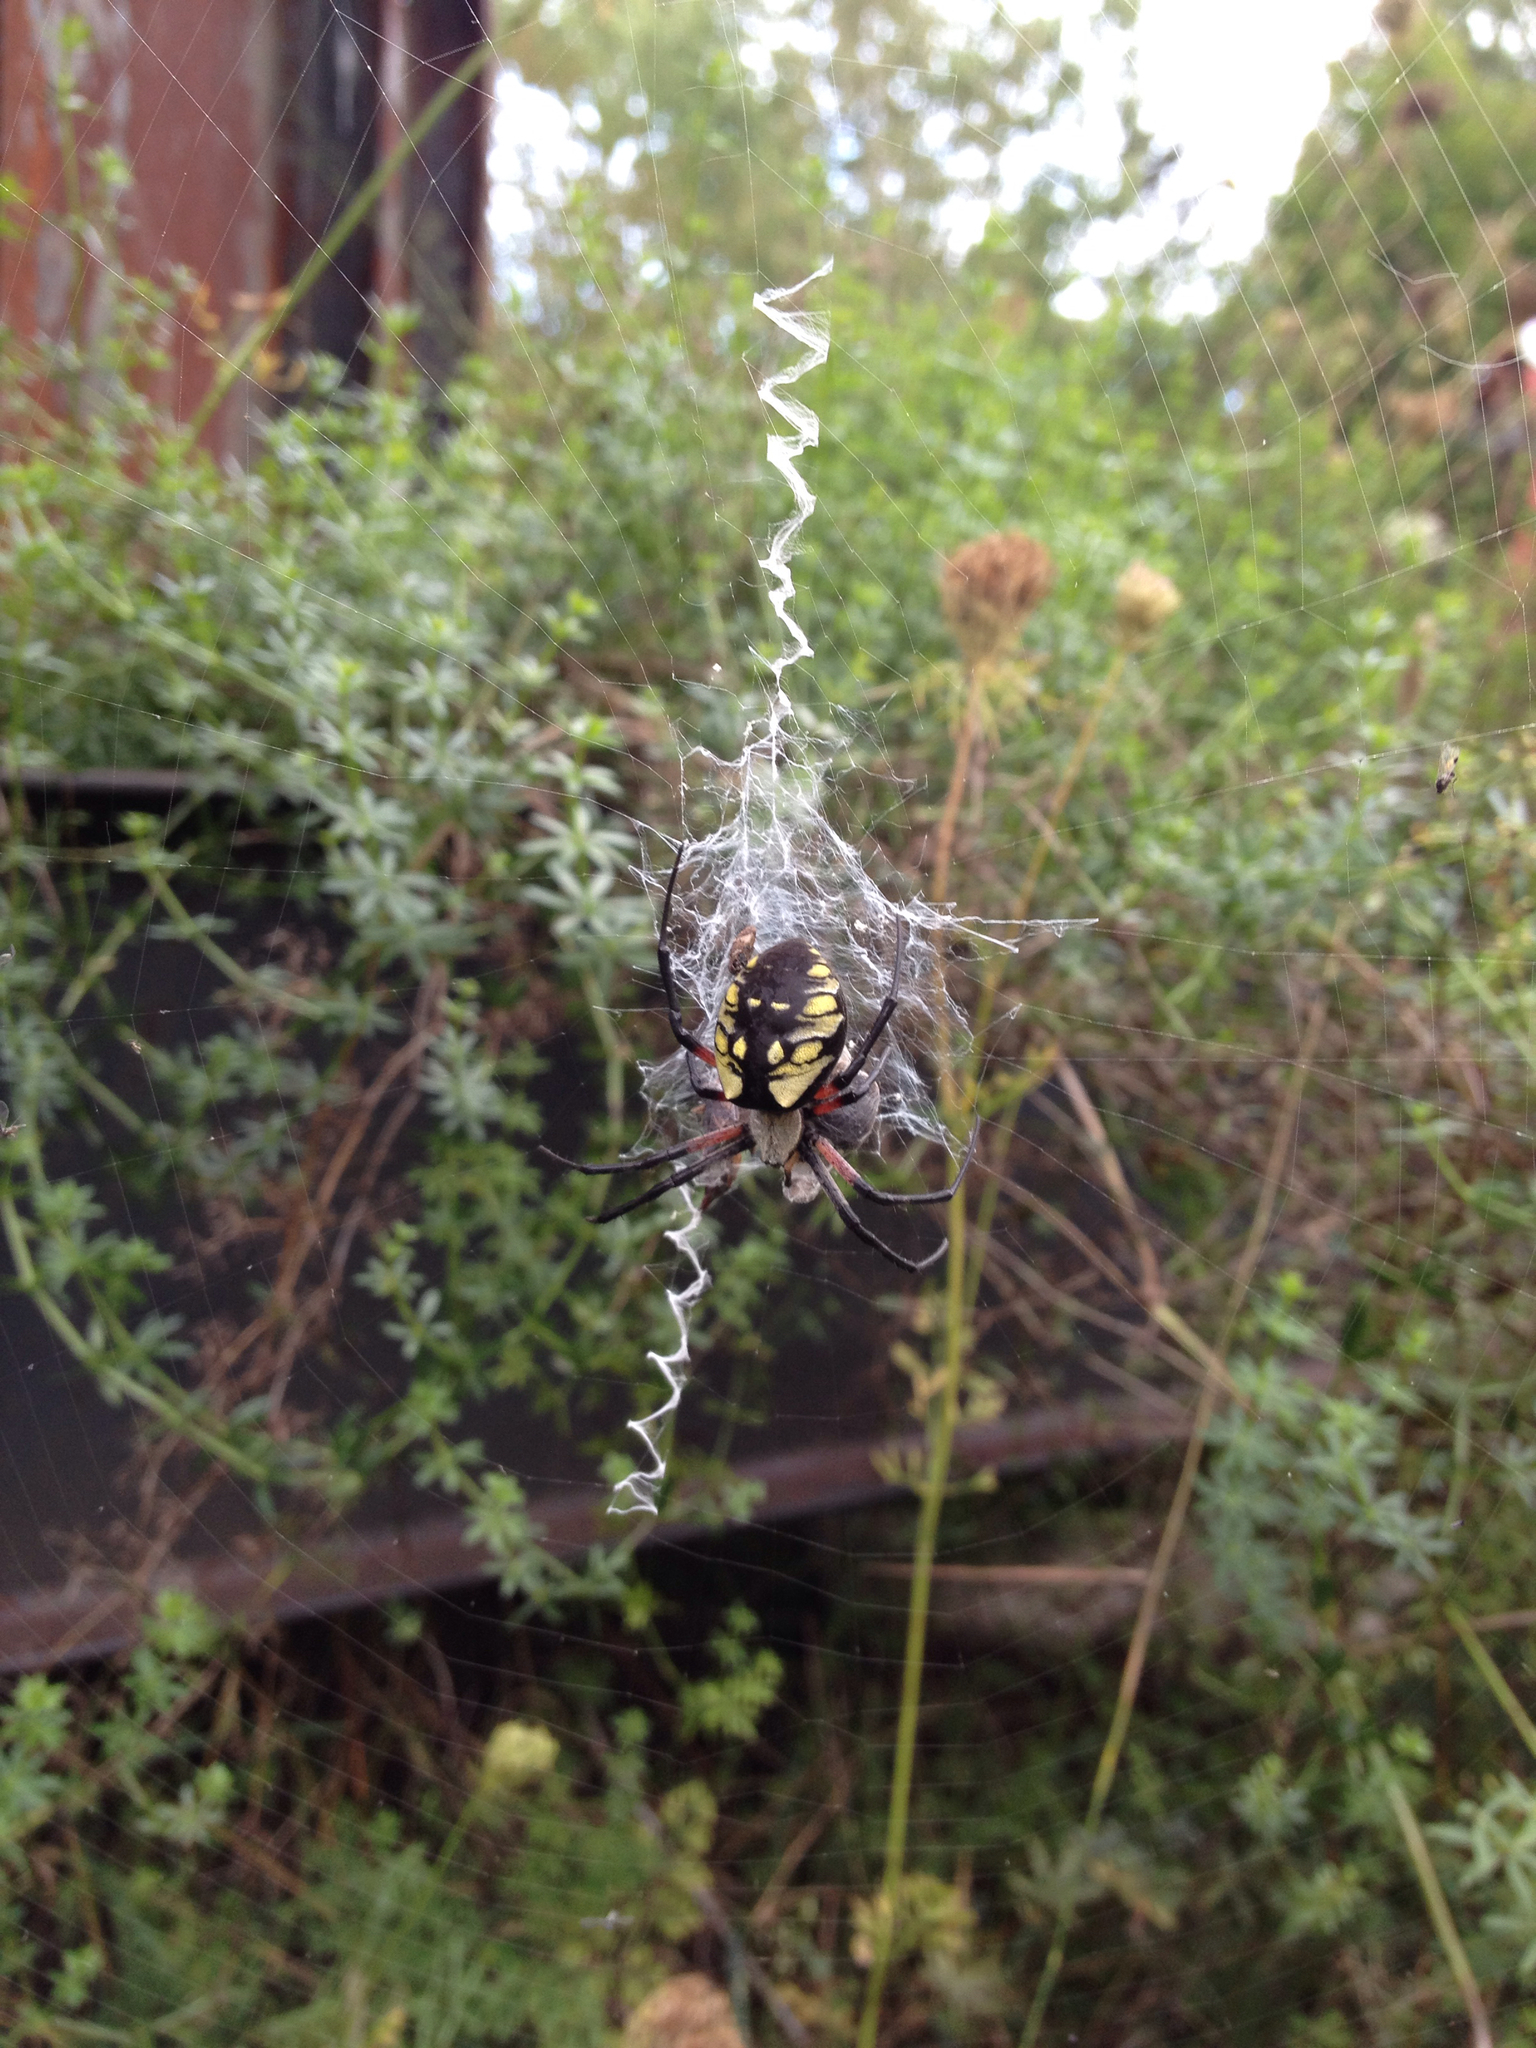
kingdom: Animalia
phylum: Arthropoda
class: Arachnida
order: Araneae
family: Araneidae
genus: Argiope
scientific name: Argiope aurantia
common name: Orb weavers
